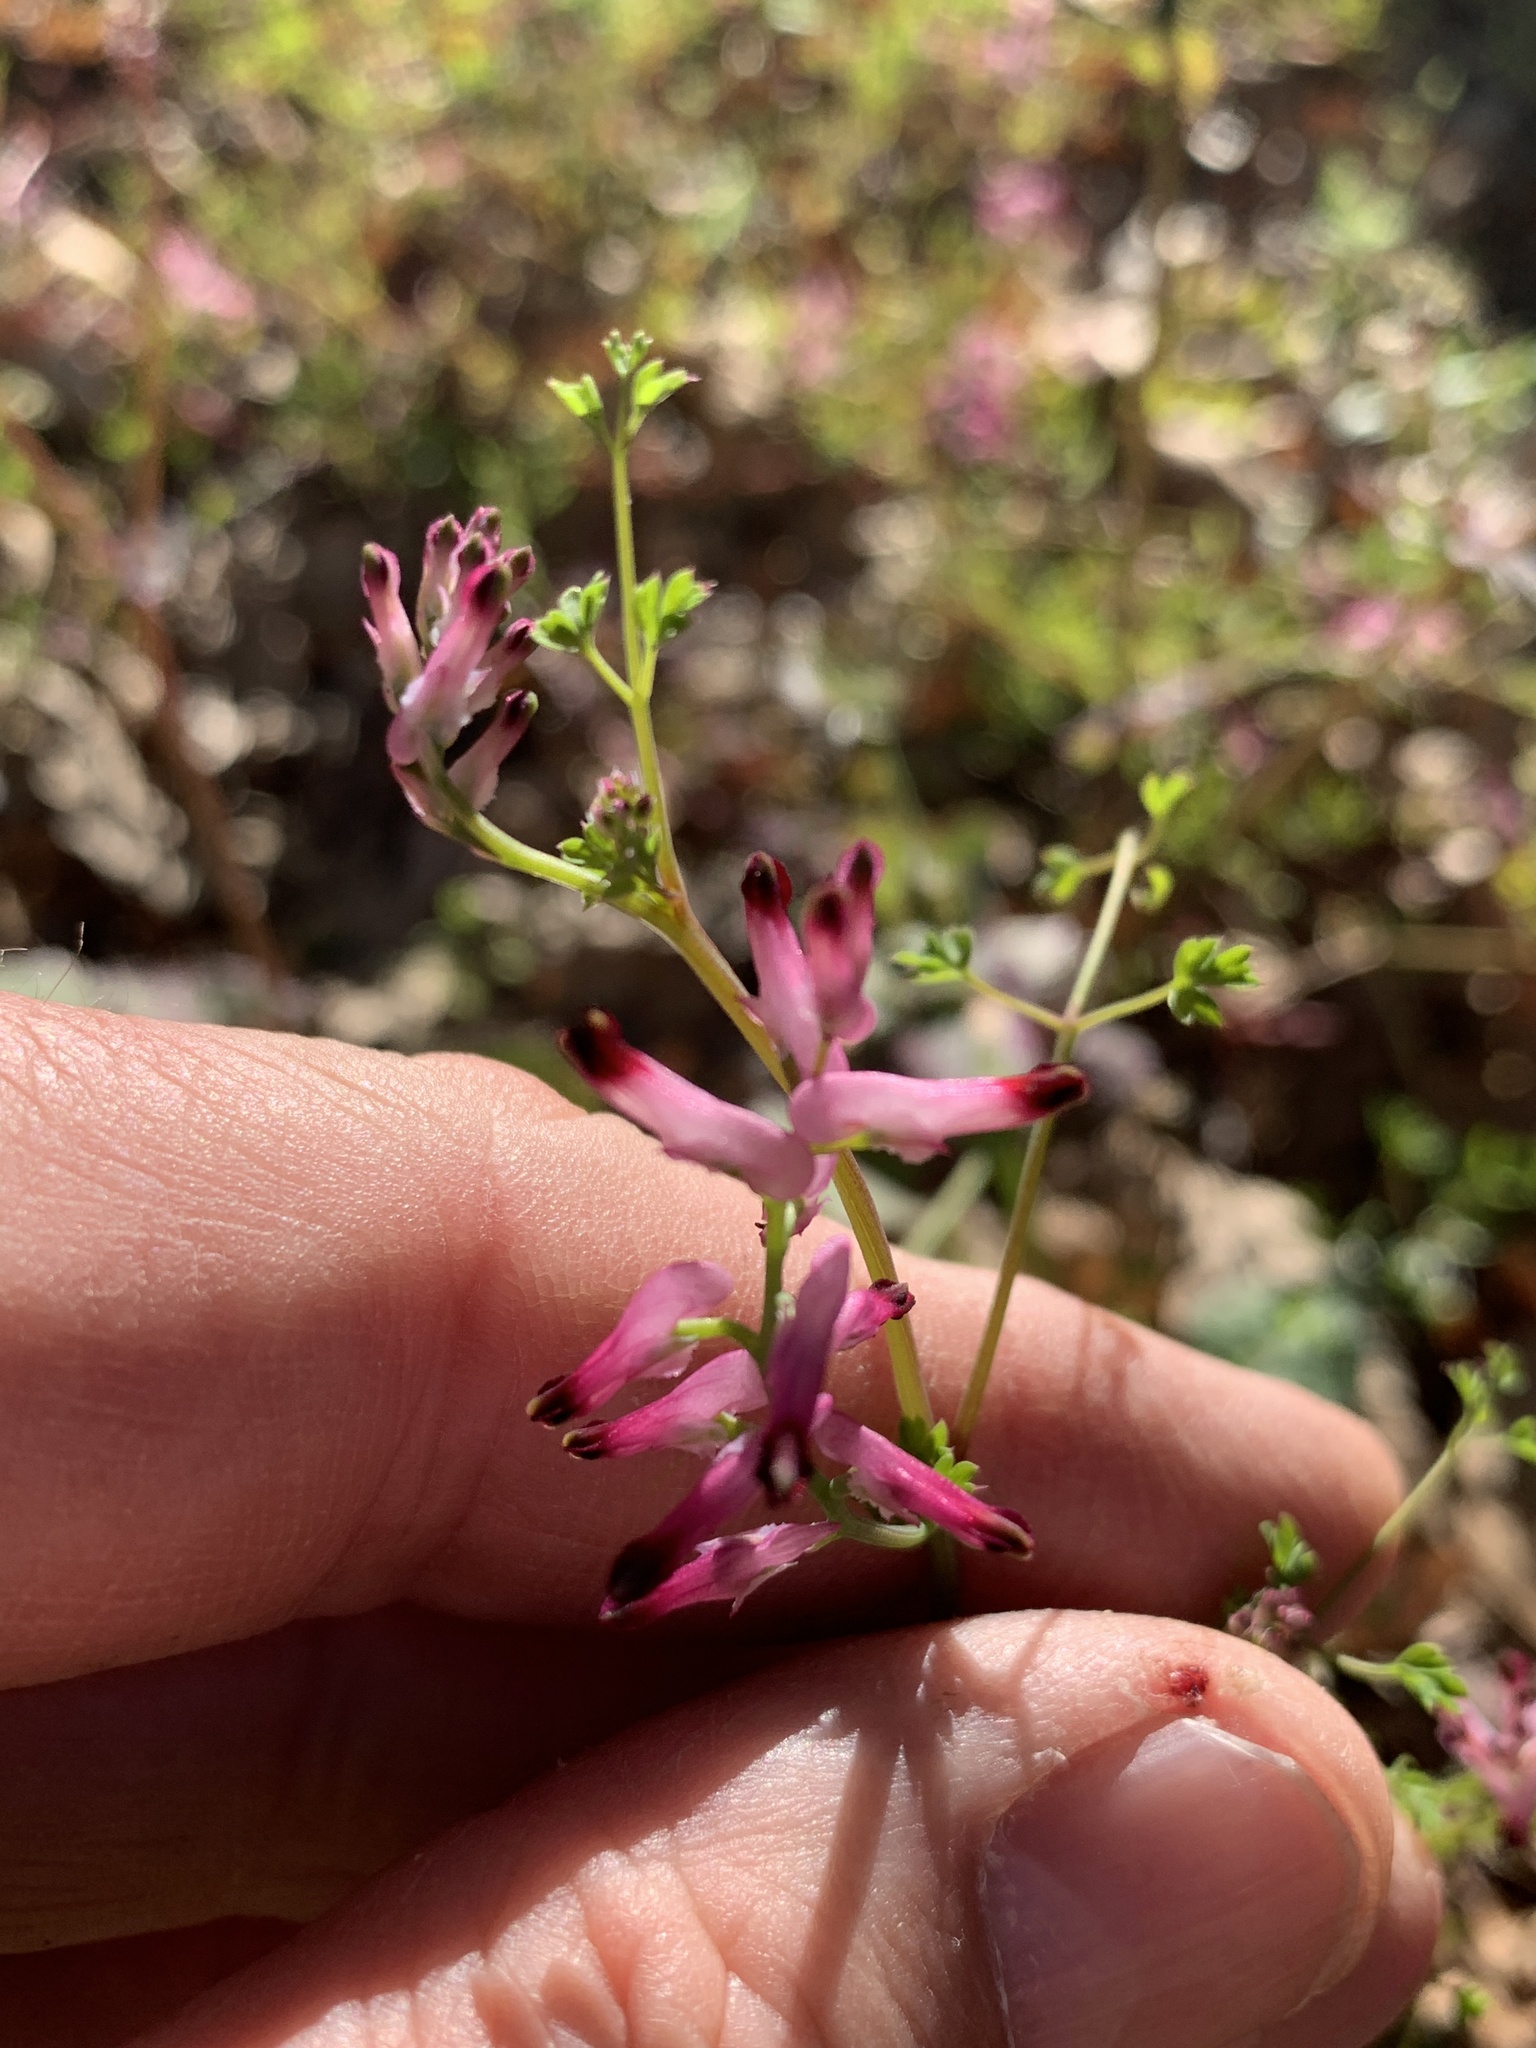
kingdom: Plantae
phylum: Tracheophyta
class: Magnoliopsida
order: Ranunculales
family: Papaveraceae
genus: Fumaria
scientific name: Fumaria muralis
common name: Common ramping-fumitory
